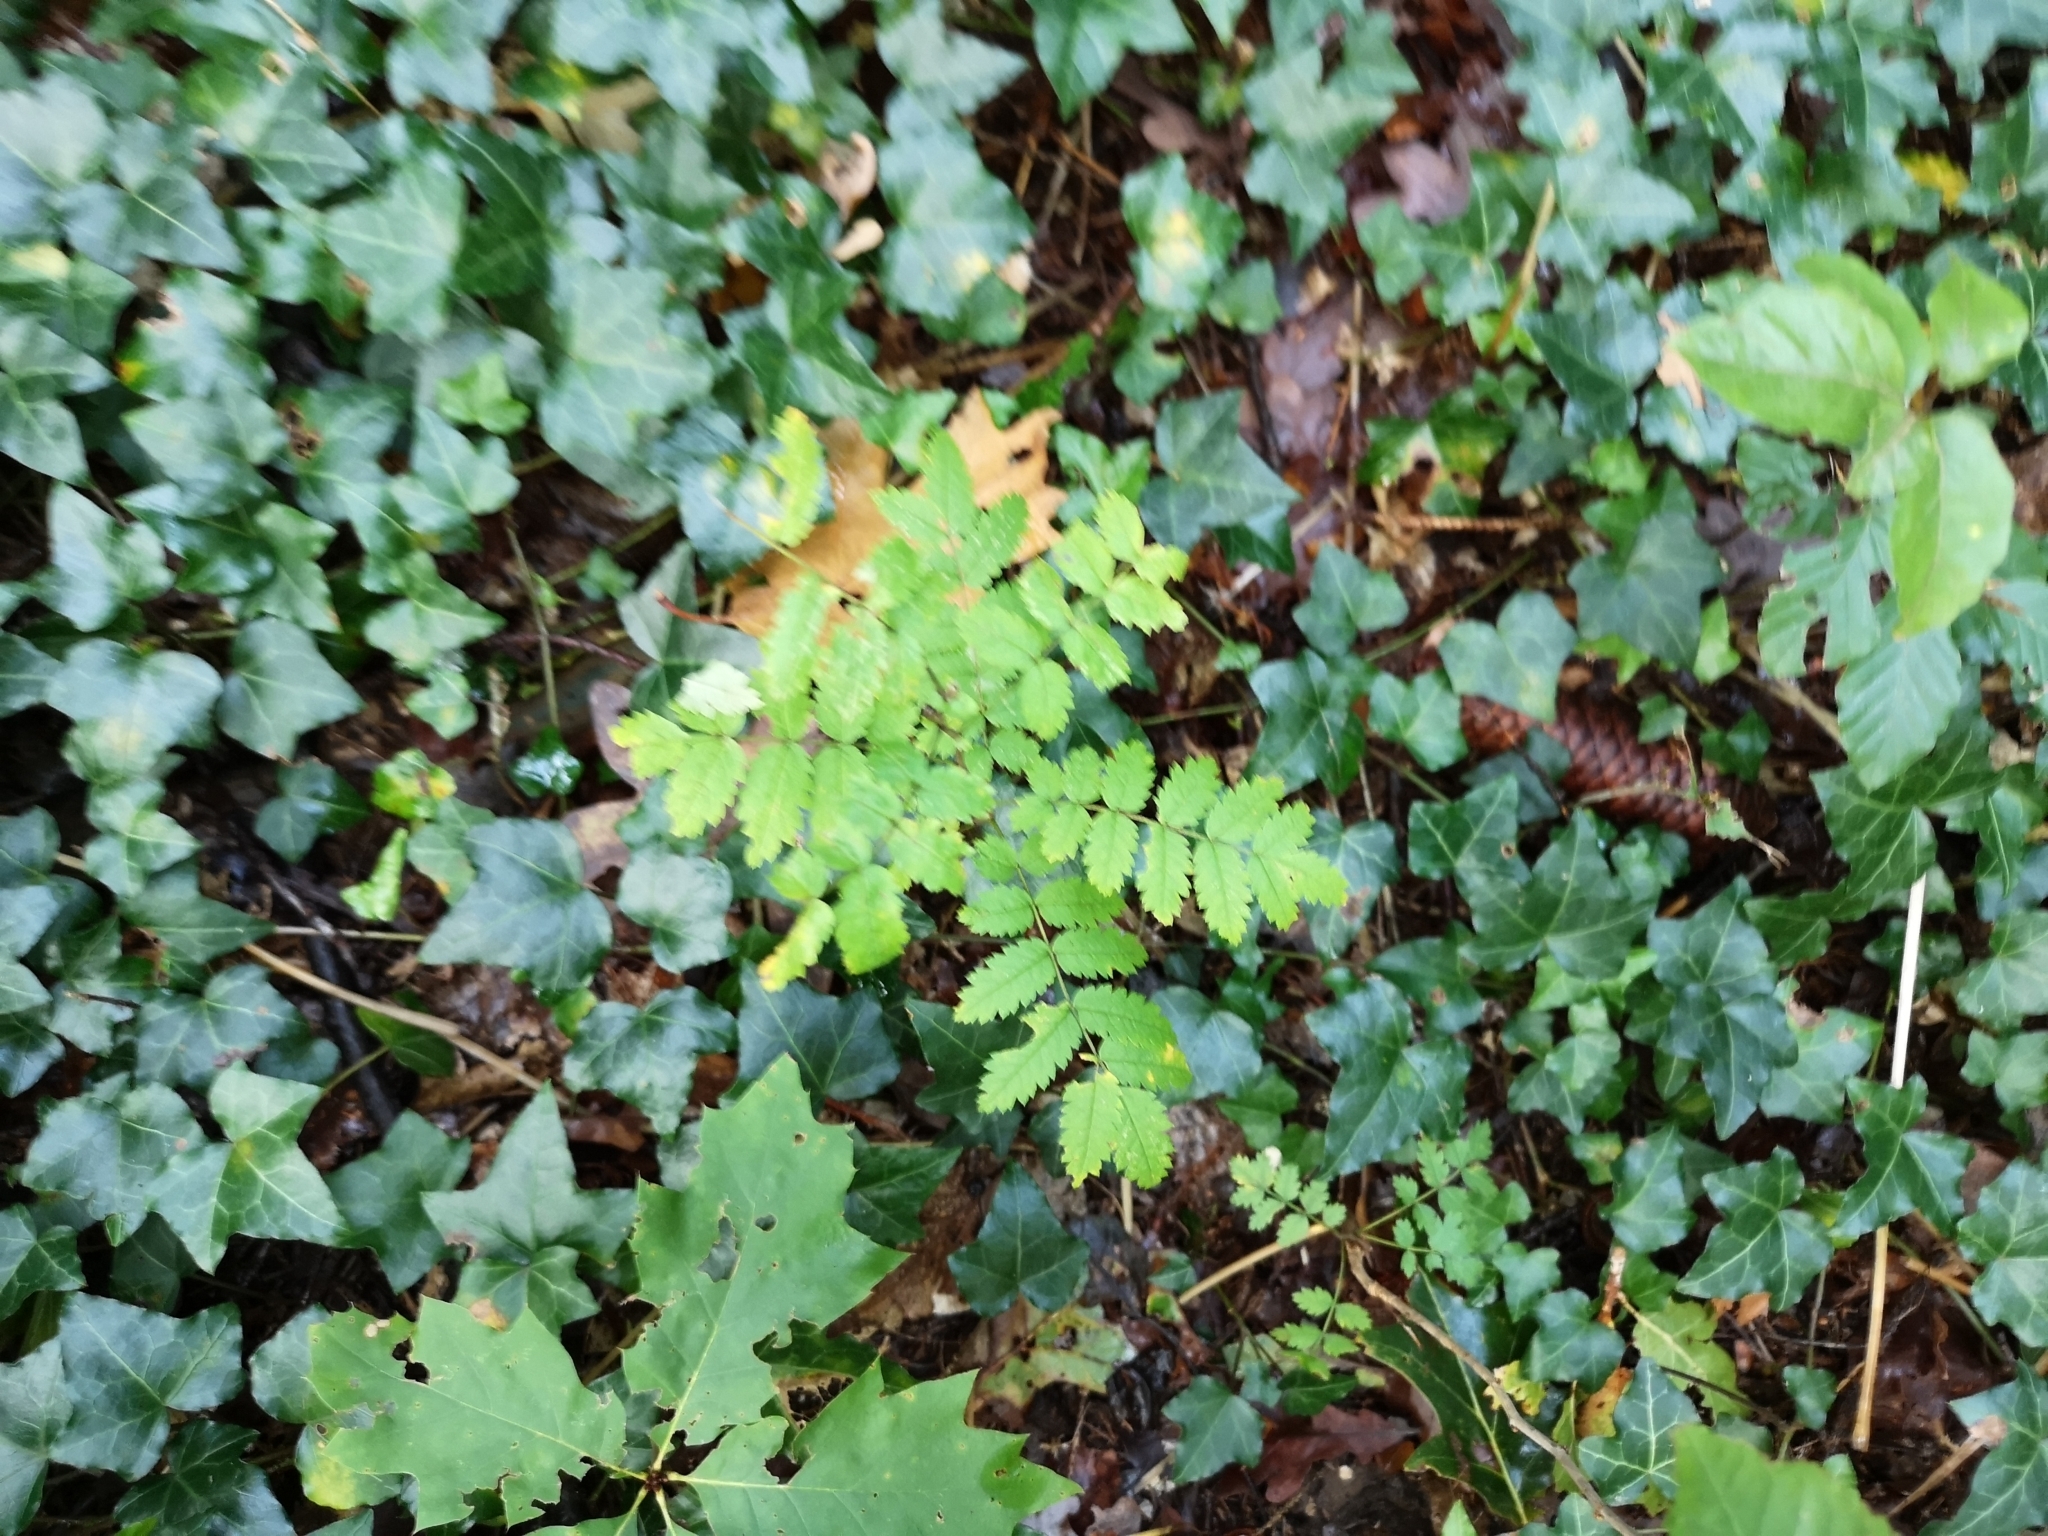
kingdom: Plantae
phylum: Tracheophyta
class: Magnoliopsida
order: Rosales
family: Rosaceae
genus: Sorbus
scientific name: Sorbus aucuparia
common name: Rowan
